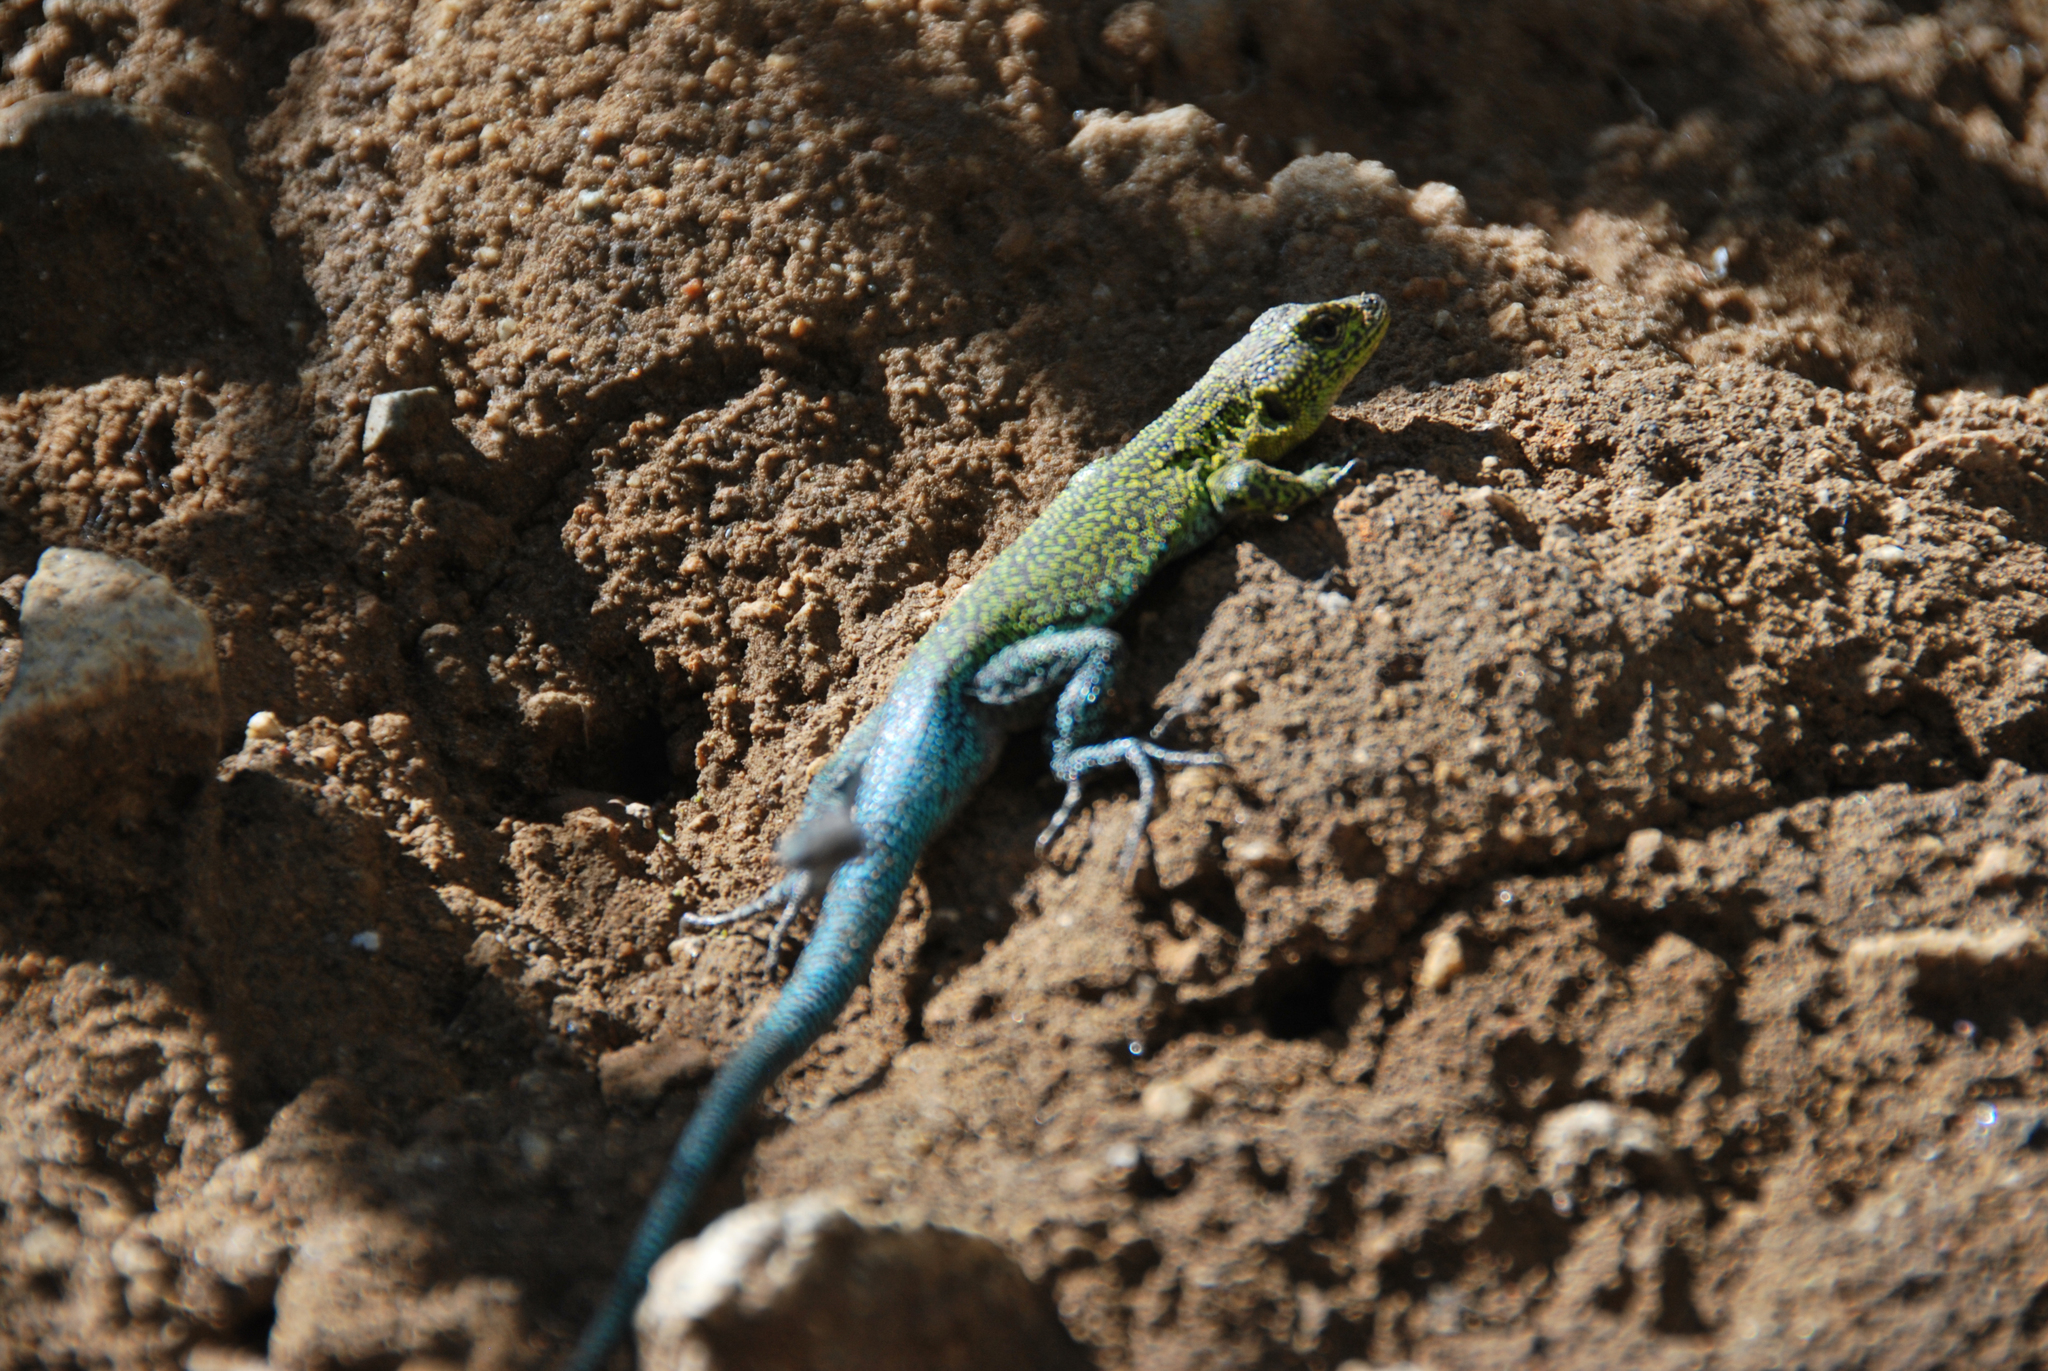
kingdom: Animalia
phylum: Chordata
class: Squamata
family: Liolaemidae
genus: Liolaemus
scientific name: Liolaemus tenuis
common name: Thin tree iguana
